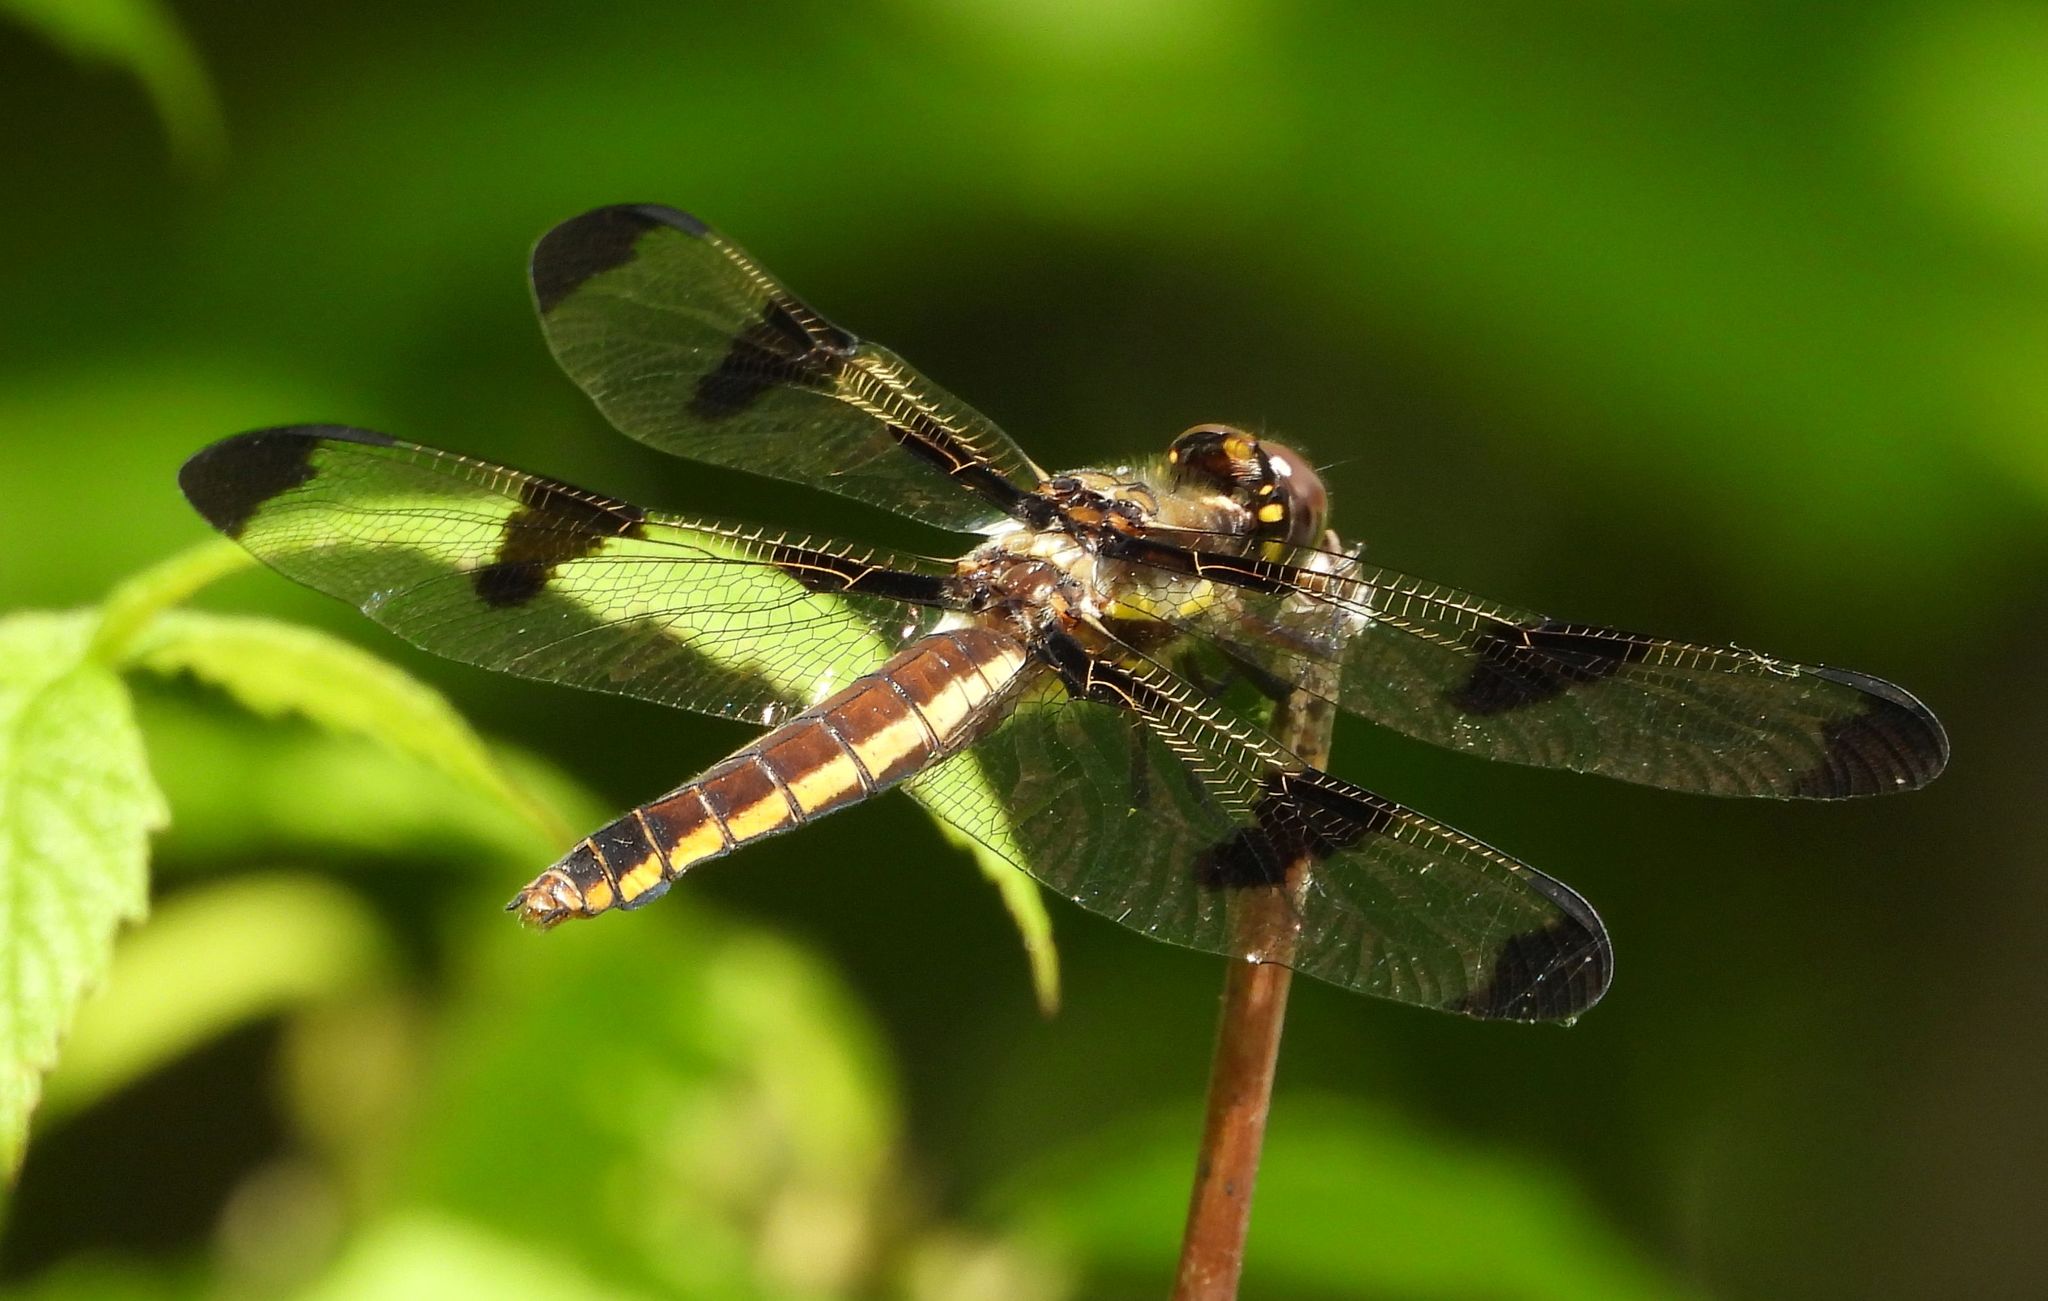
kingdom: Animalia
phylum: Arthropoda
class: Insecta
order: Odonata
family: Libellulidae
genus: Libellula
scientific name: Libellula pulchella
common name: Twelve-spotted skimmer
